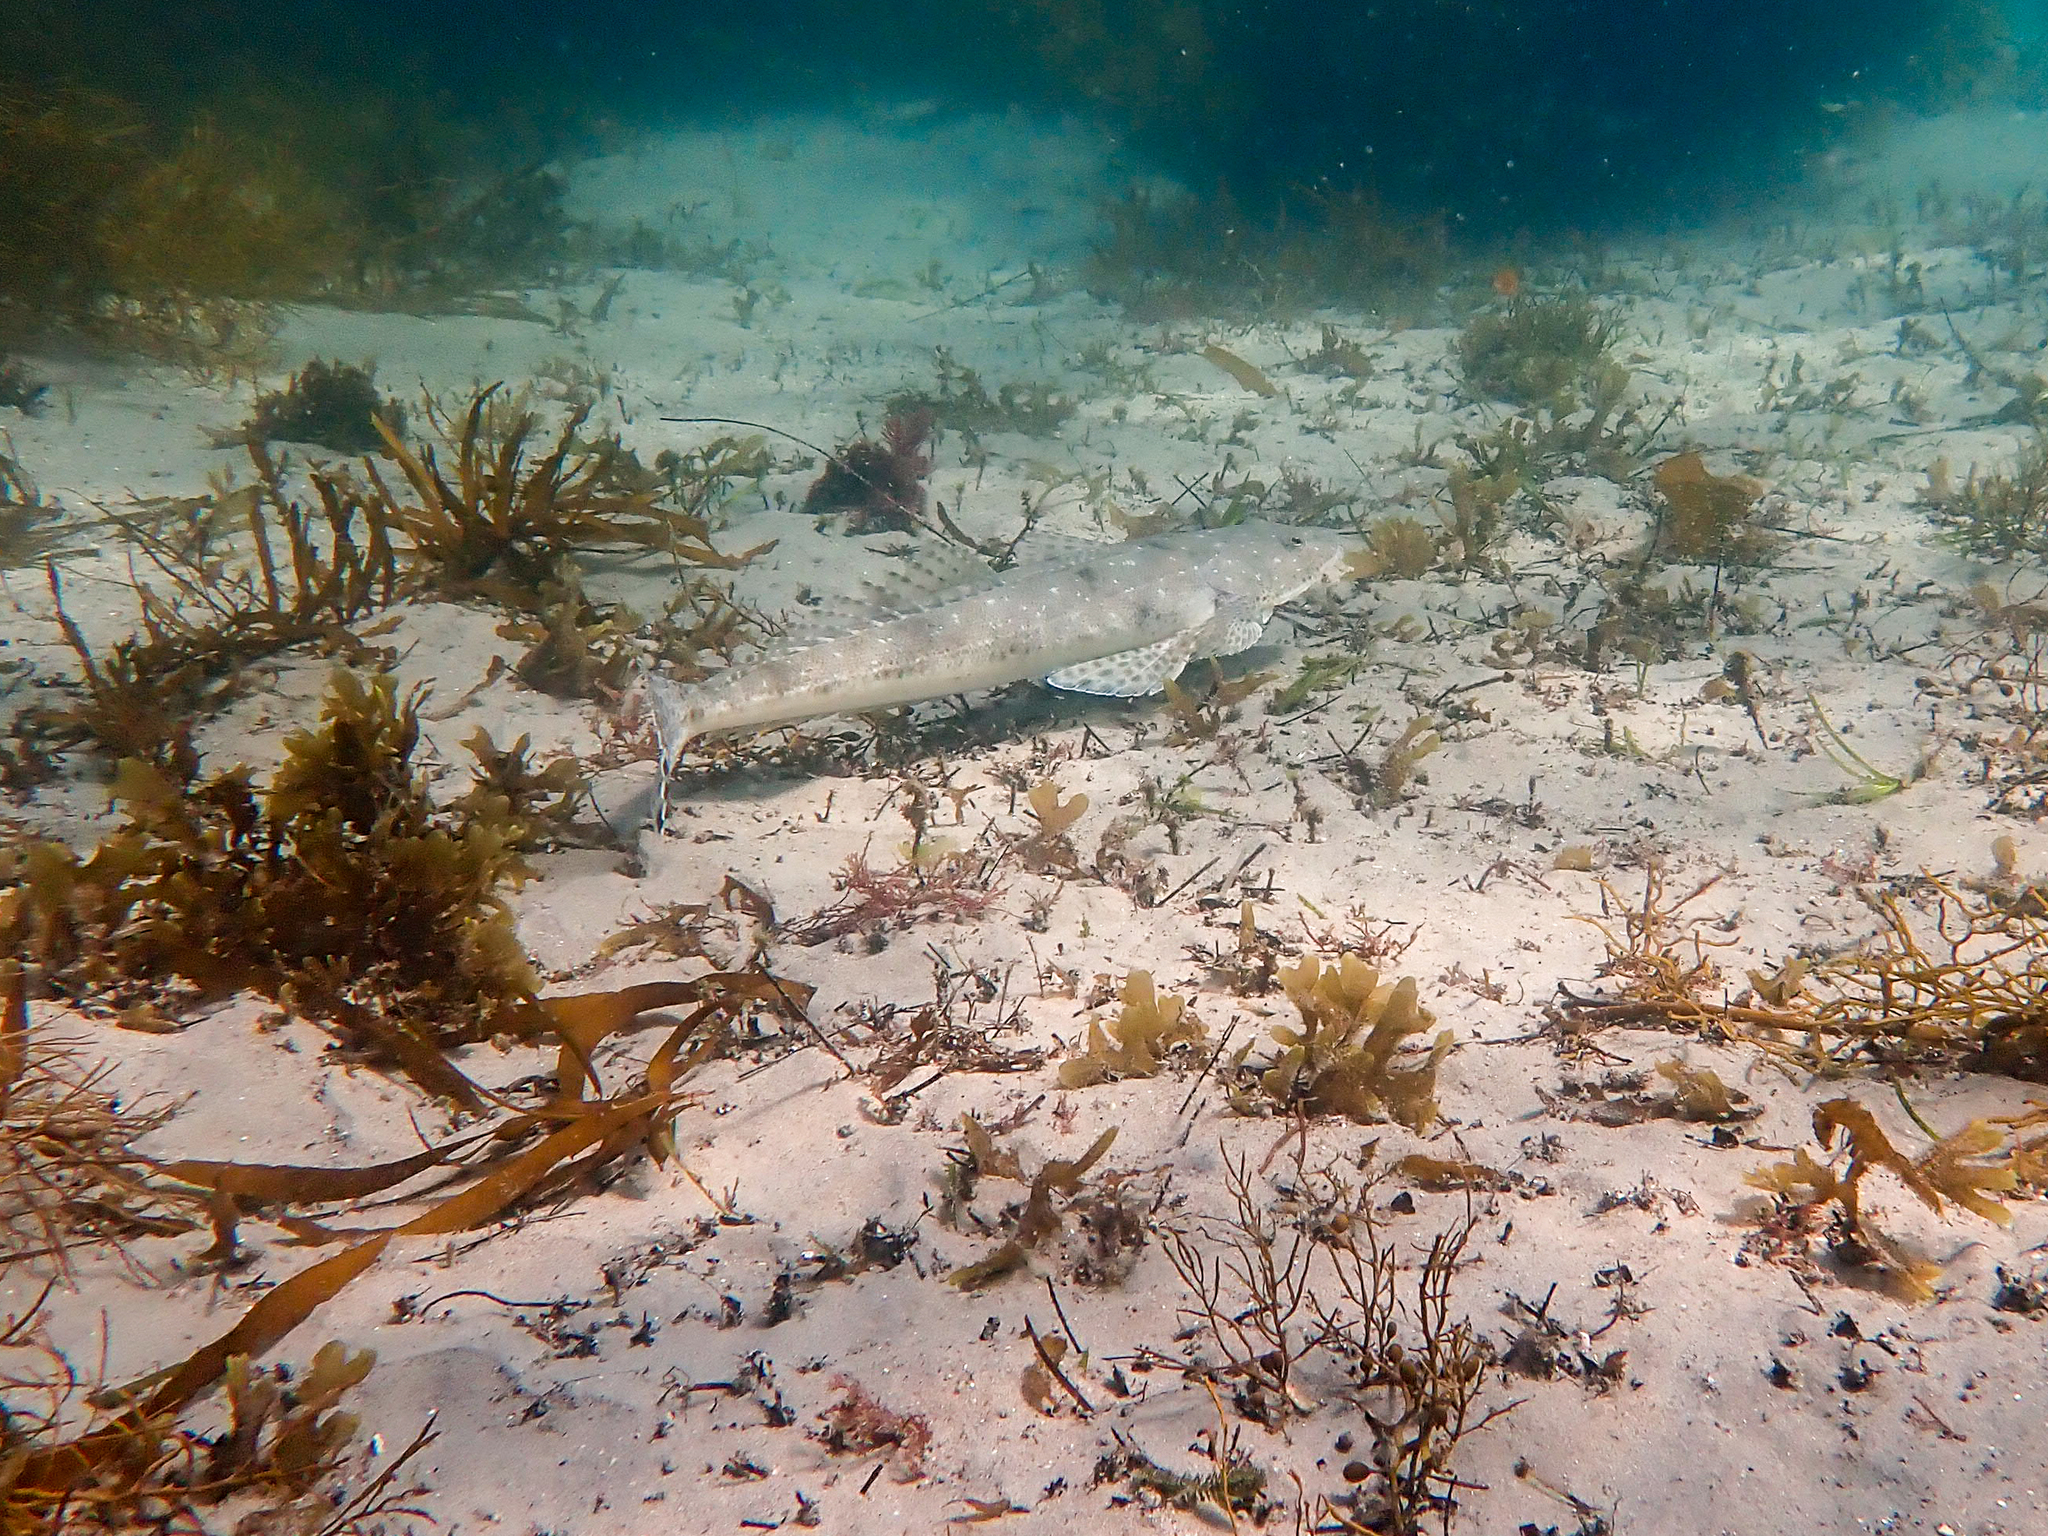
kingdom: Animalia
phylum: Chordata
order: Scorpaeniformes
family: Platycephalidae
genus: Platycephalus
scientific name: Platycephalus speculator
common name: Bluespot flathead
